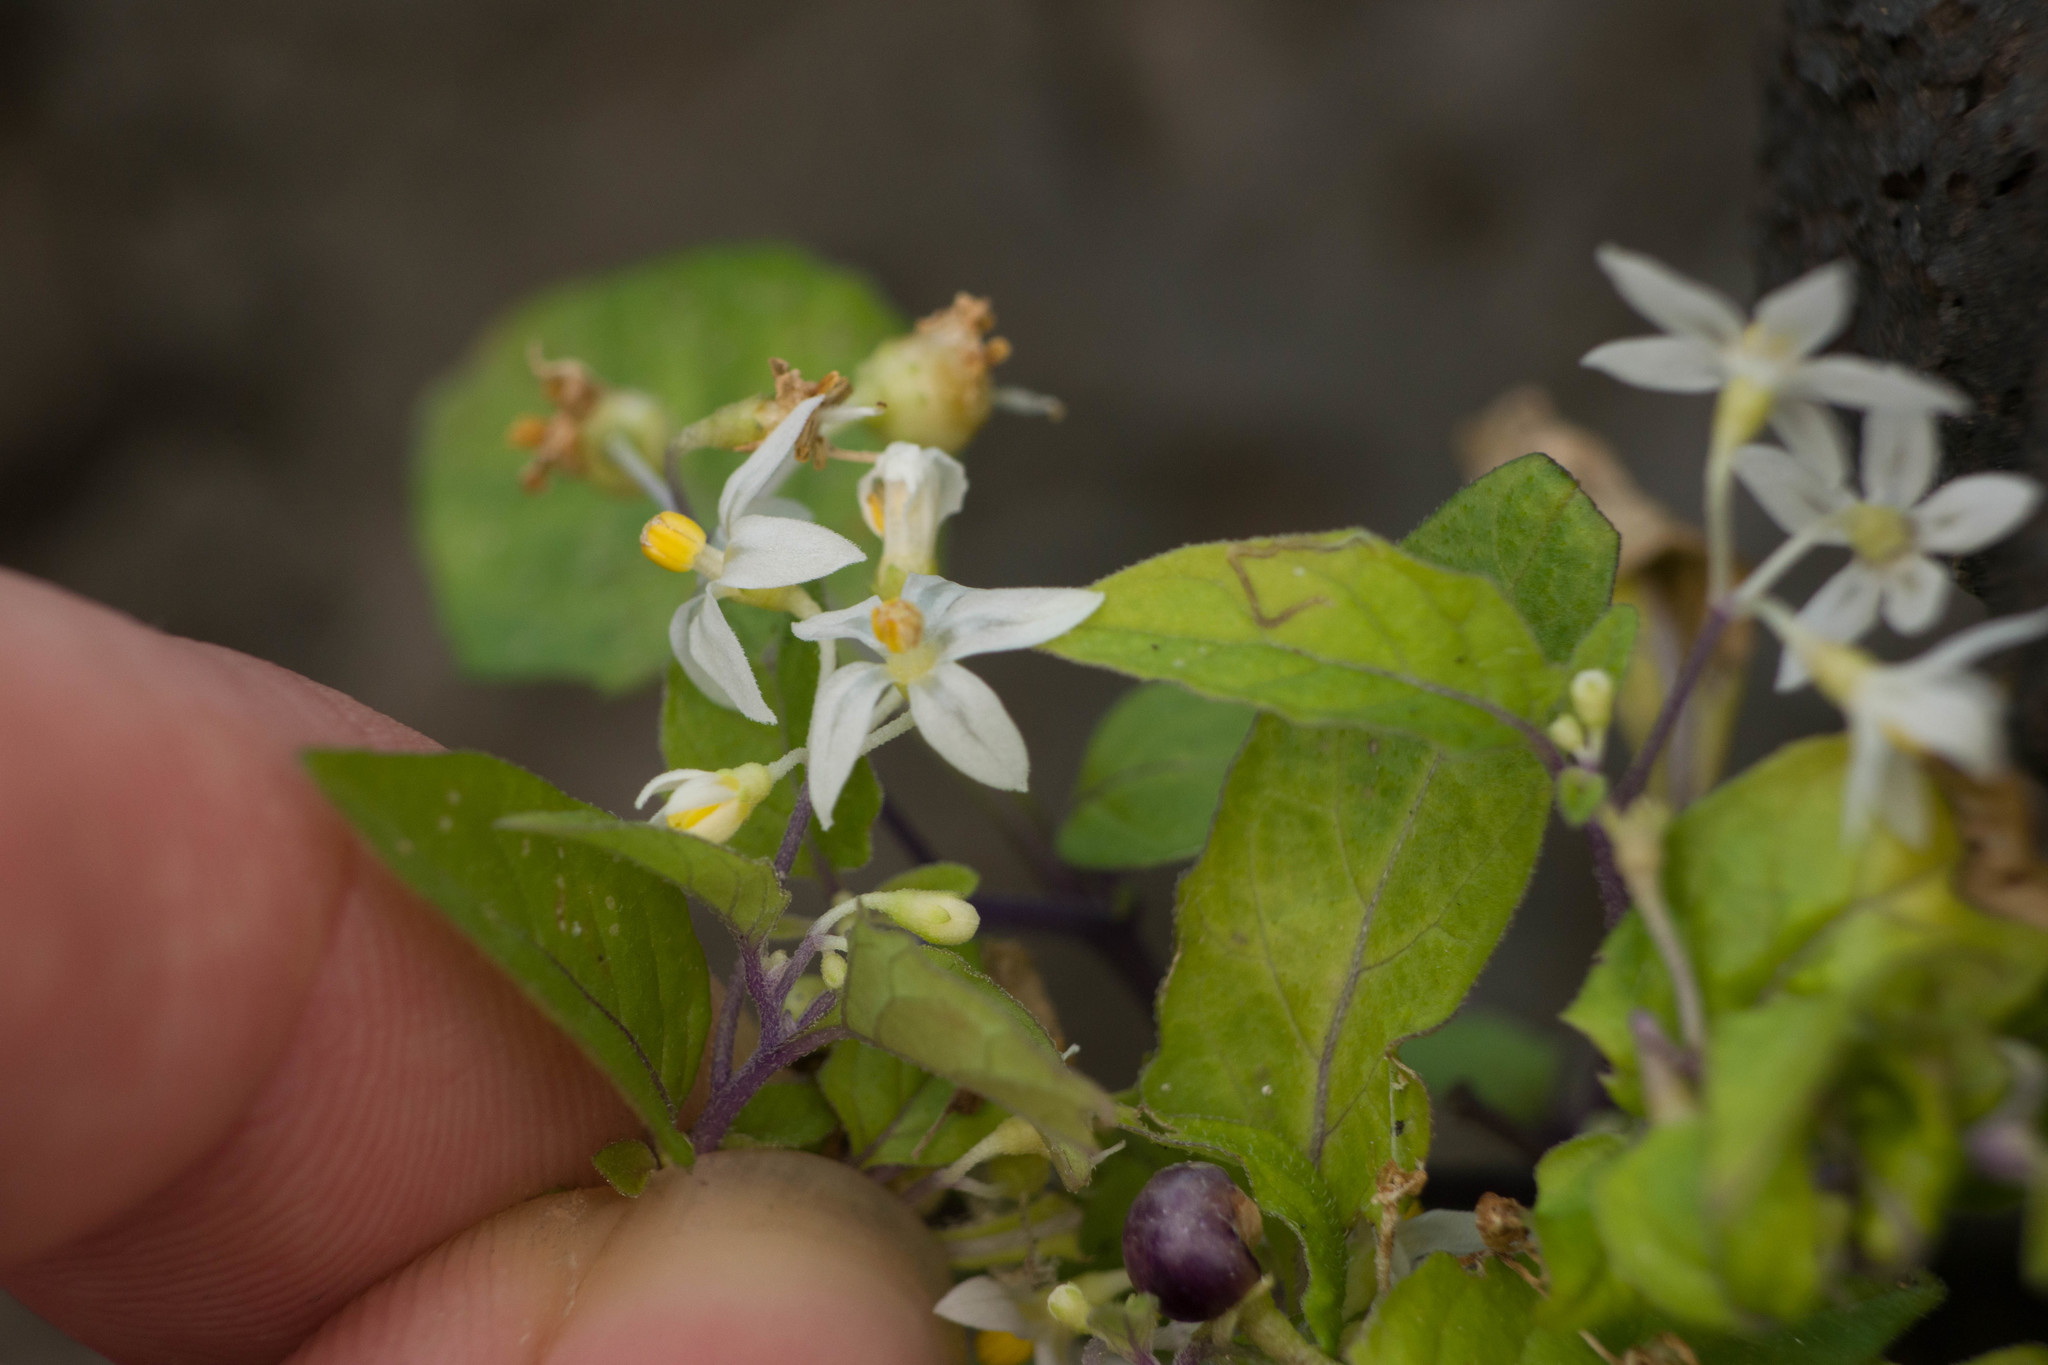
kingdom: Plantae
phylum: Tracheophyta
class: Magnoliopsida
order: Solanales
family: Solanaceae
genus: Solanum
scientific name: Solanum americanum
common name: American black nightshade
